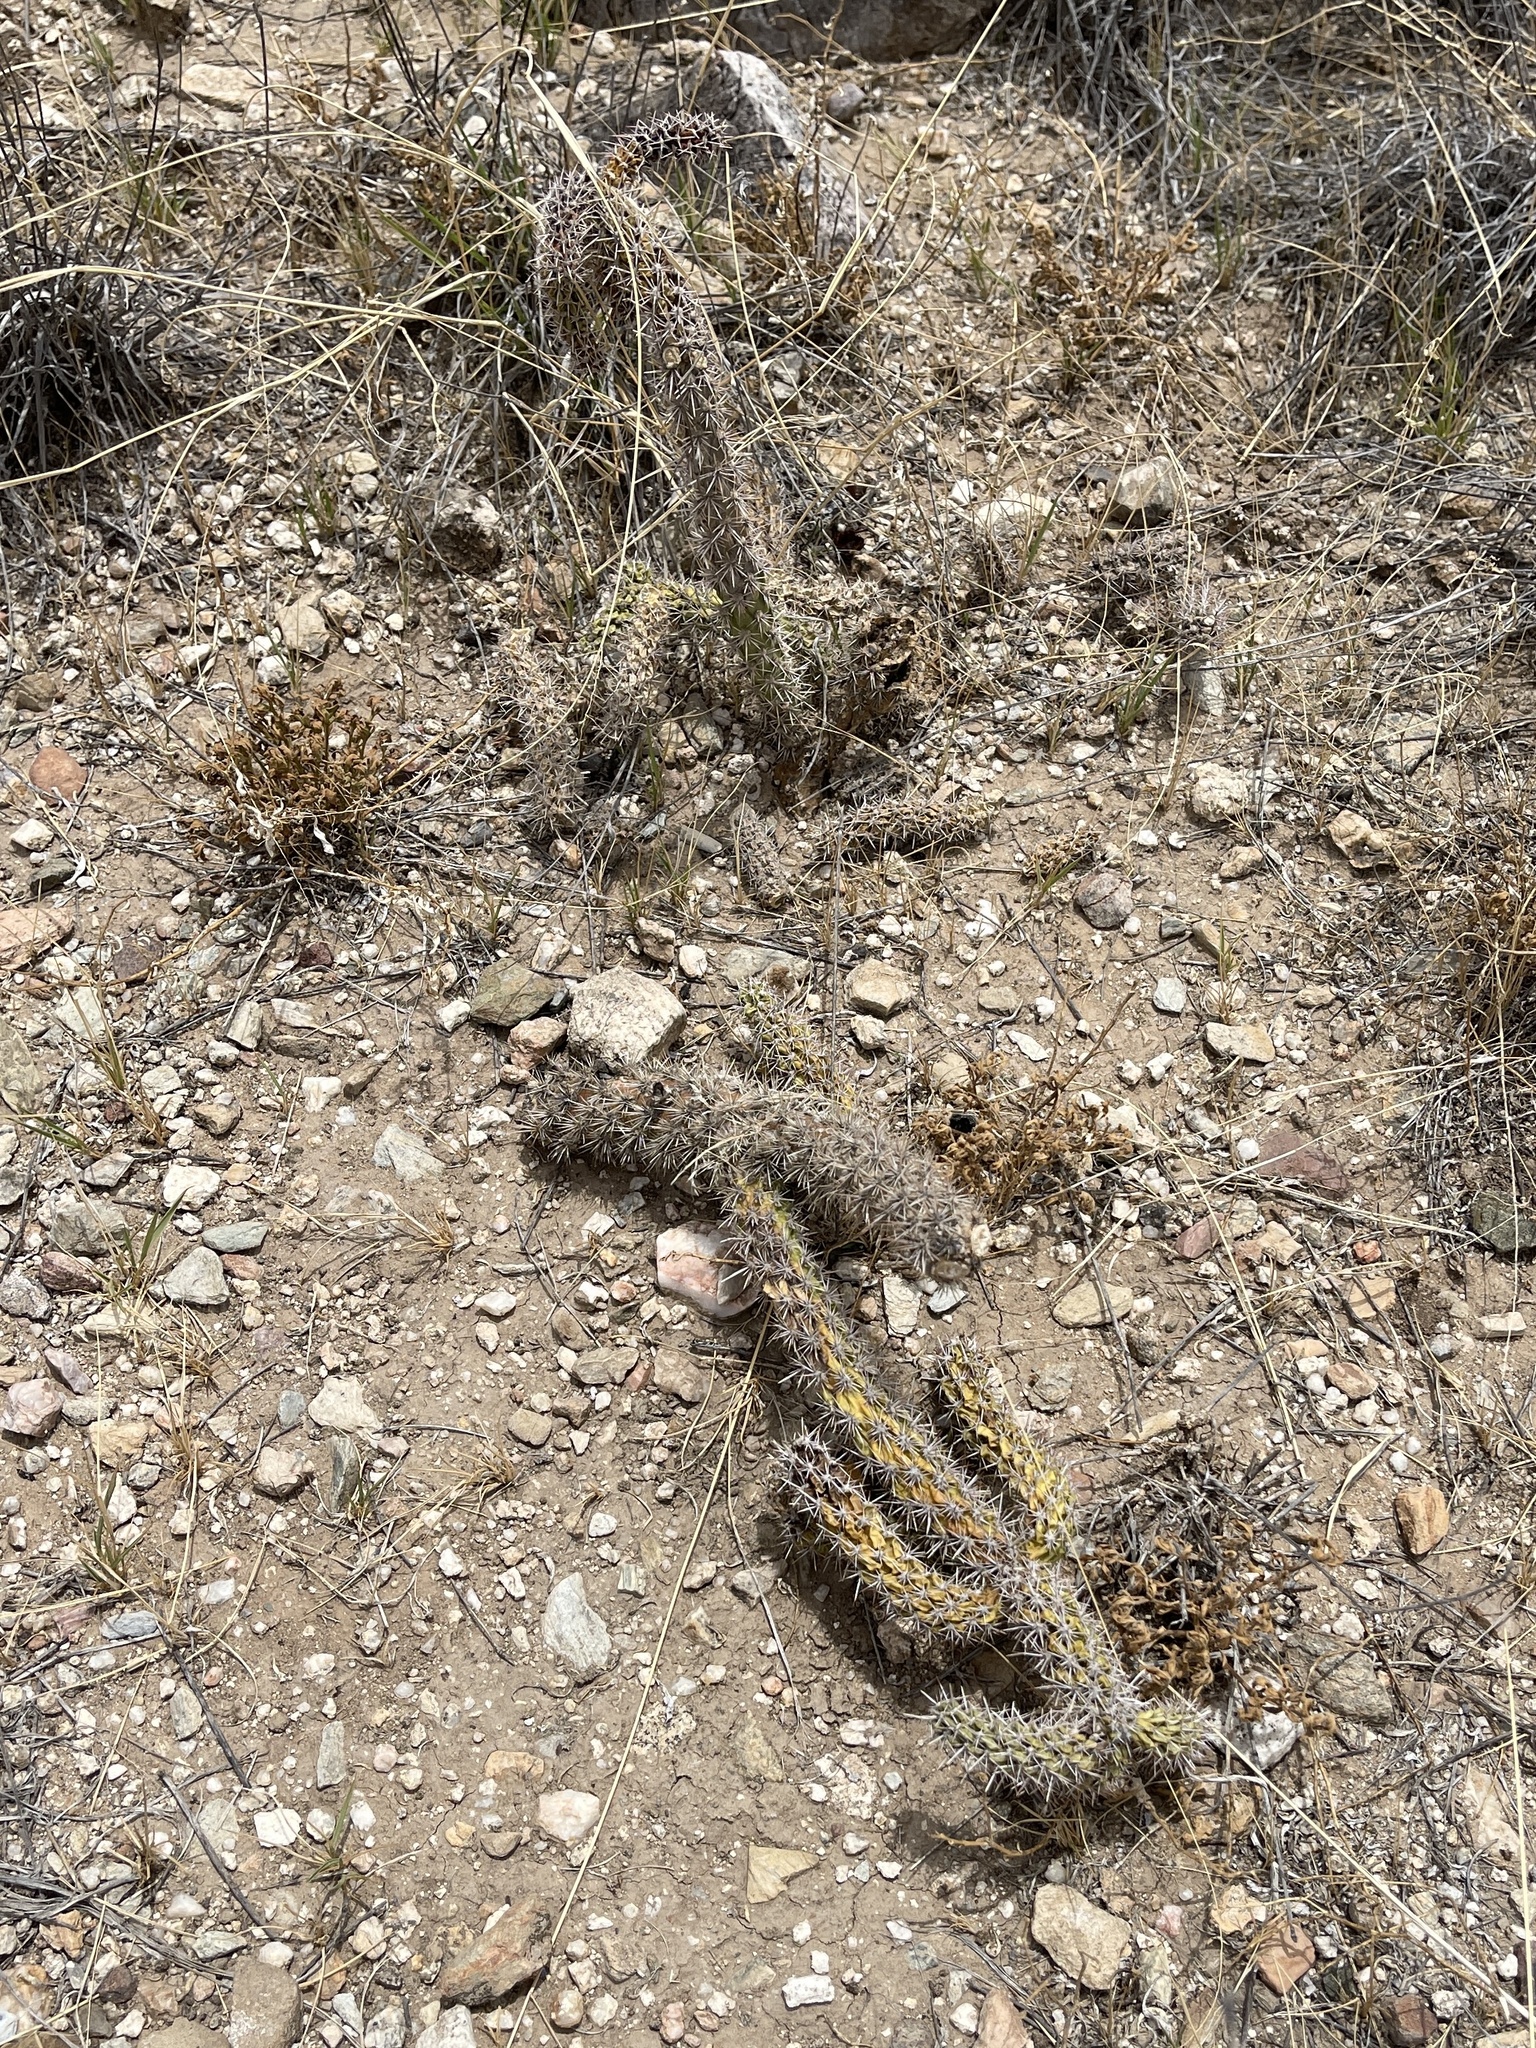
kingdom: Plantae
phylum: Tracheophyta
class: Magnoliopsida
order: Caryophyllales
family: Cactaceae
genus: Cylindropuntia
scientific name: Cylindropuntia imbricata
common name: Candelabrum cactus
